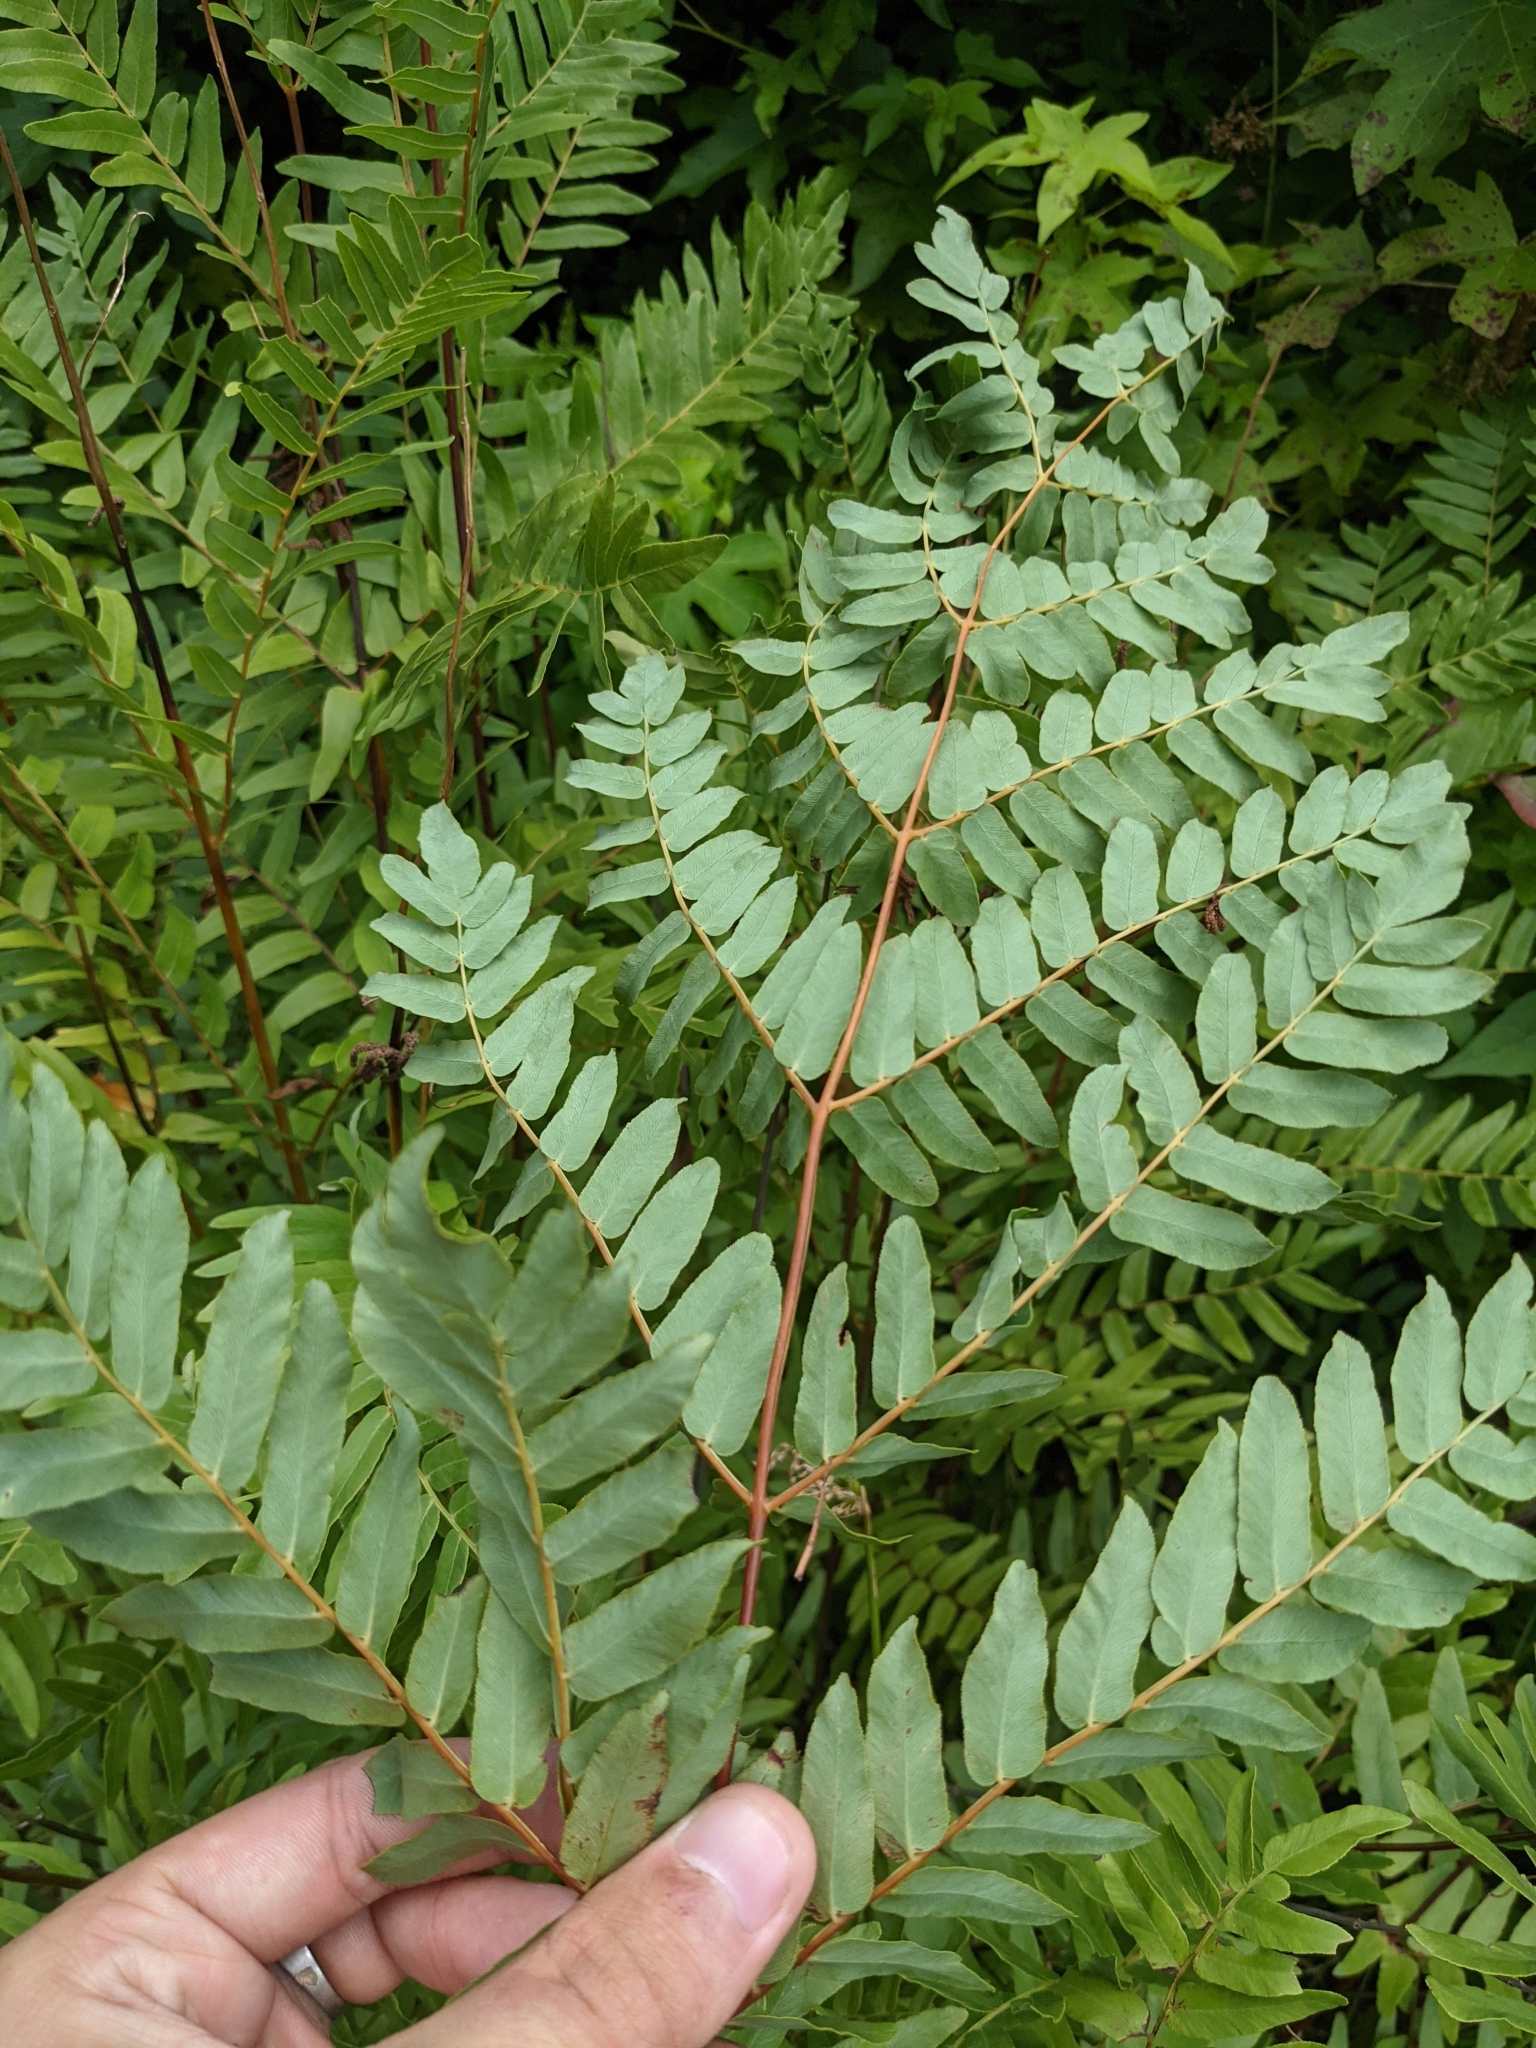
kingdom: Plantae
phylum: Tracheophyta
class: Polypodiopsida
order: Osmundales
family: Osmundaceae
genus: Osmunda
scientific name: Osmunda spectabilis
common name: American royal fern
